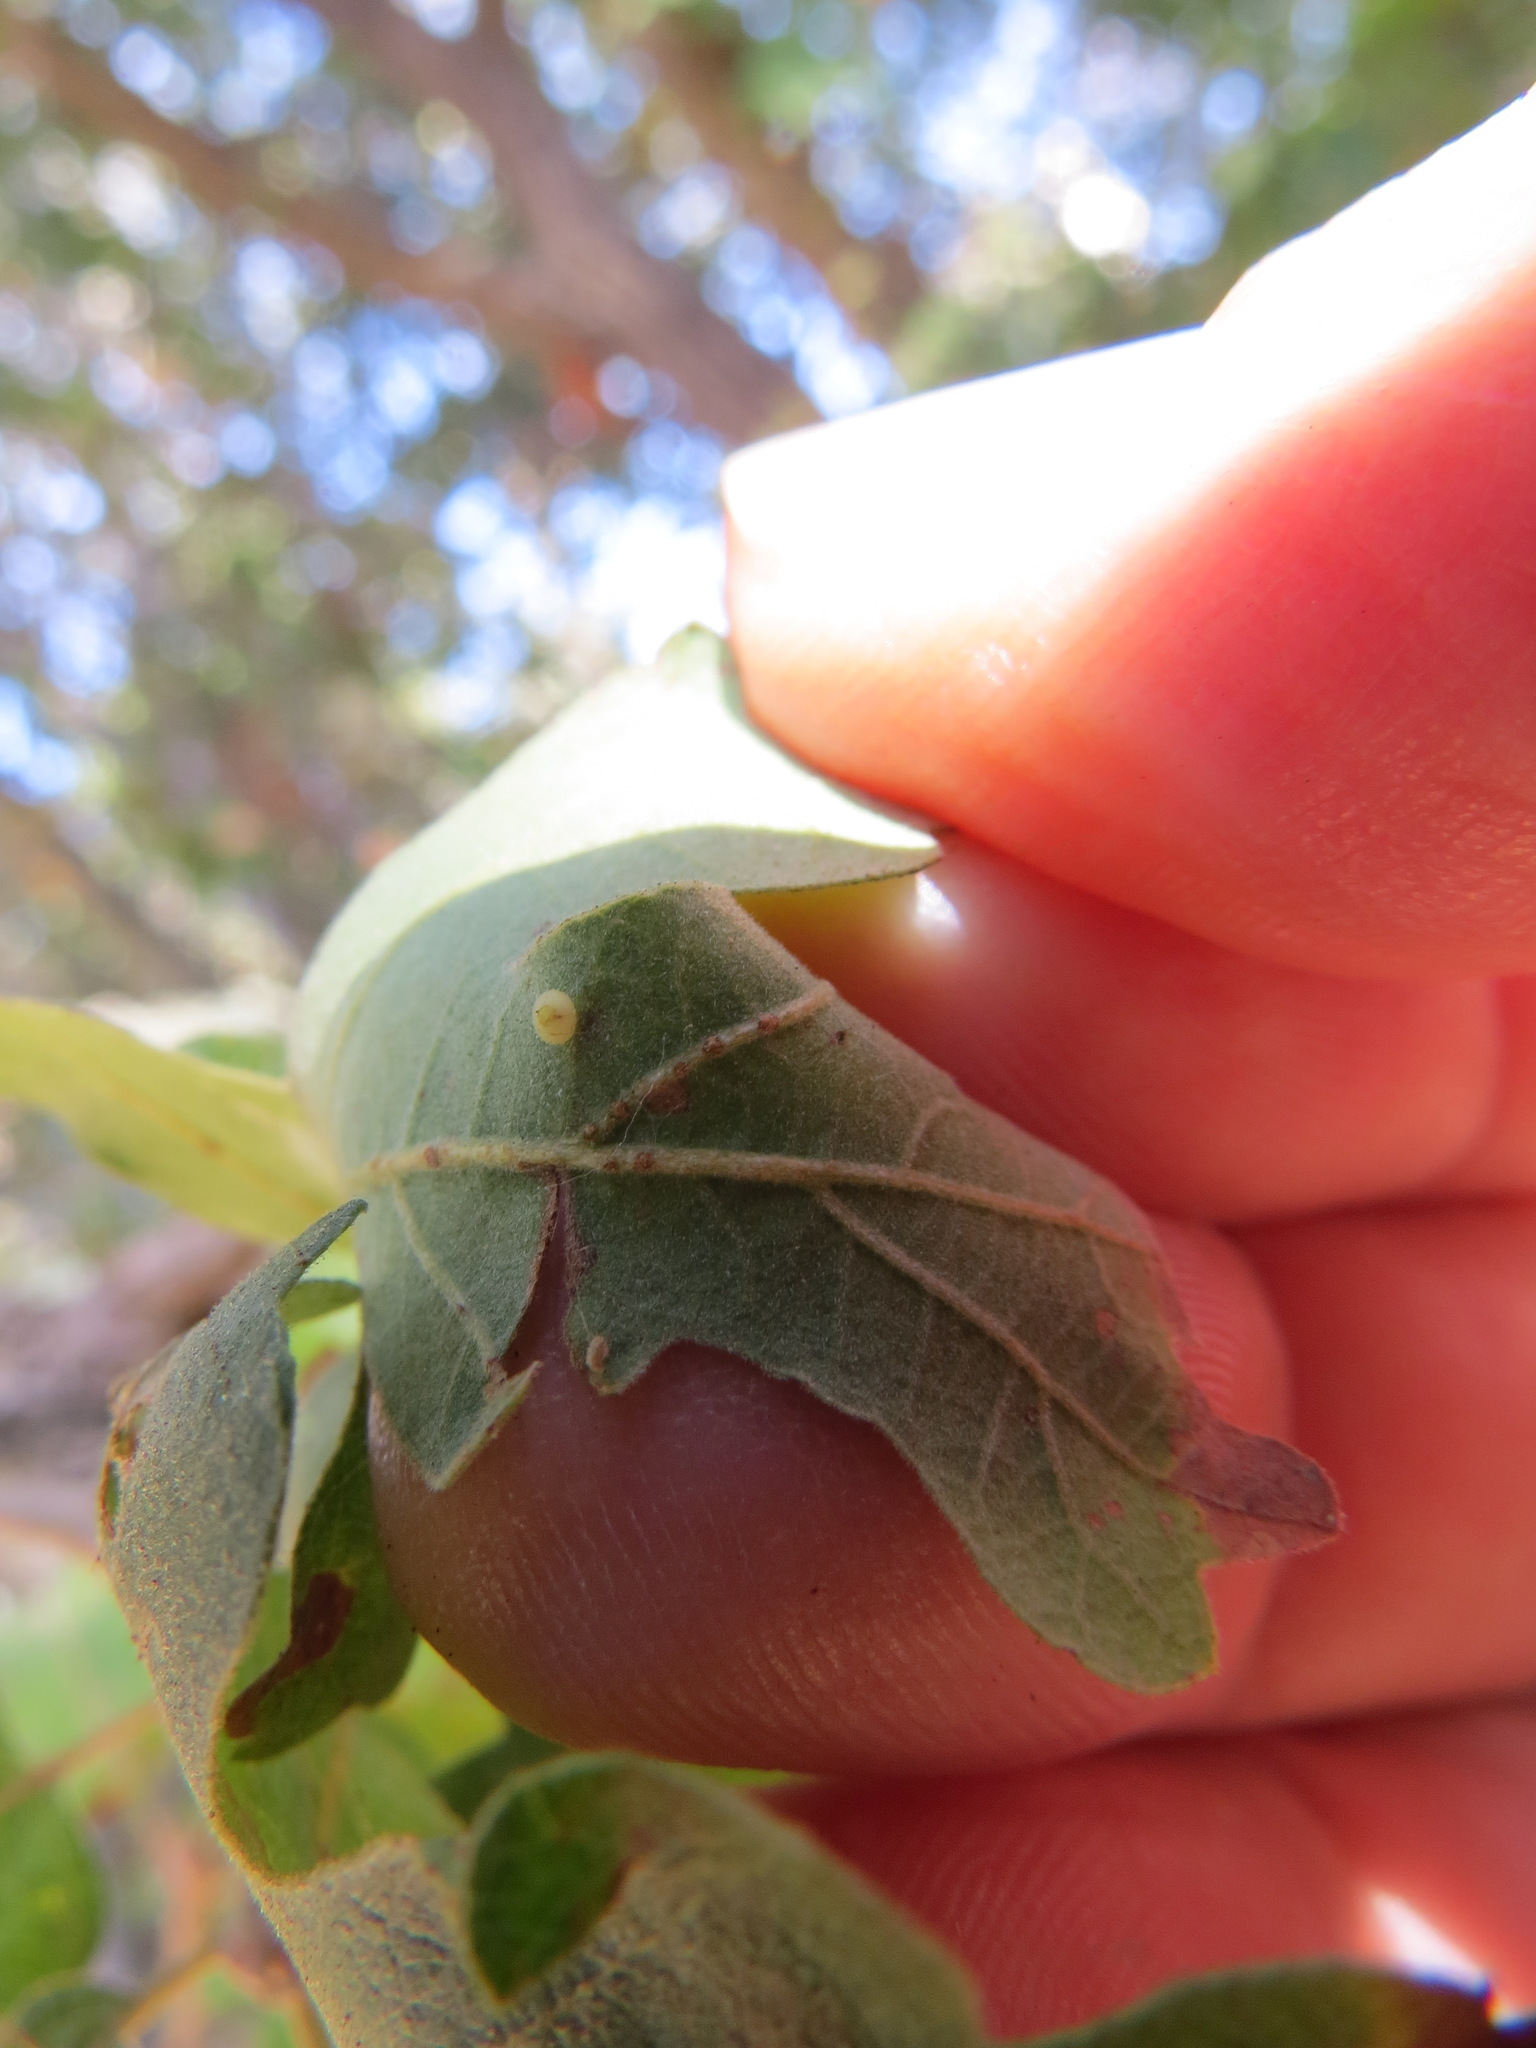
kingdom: Animalia
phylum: Arthropoda
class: Insecta
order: Hymenoptera
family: Cynipidae
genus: Neuroterus
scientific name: Neuroterus saltarius
